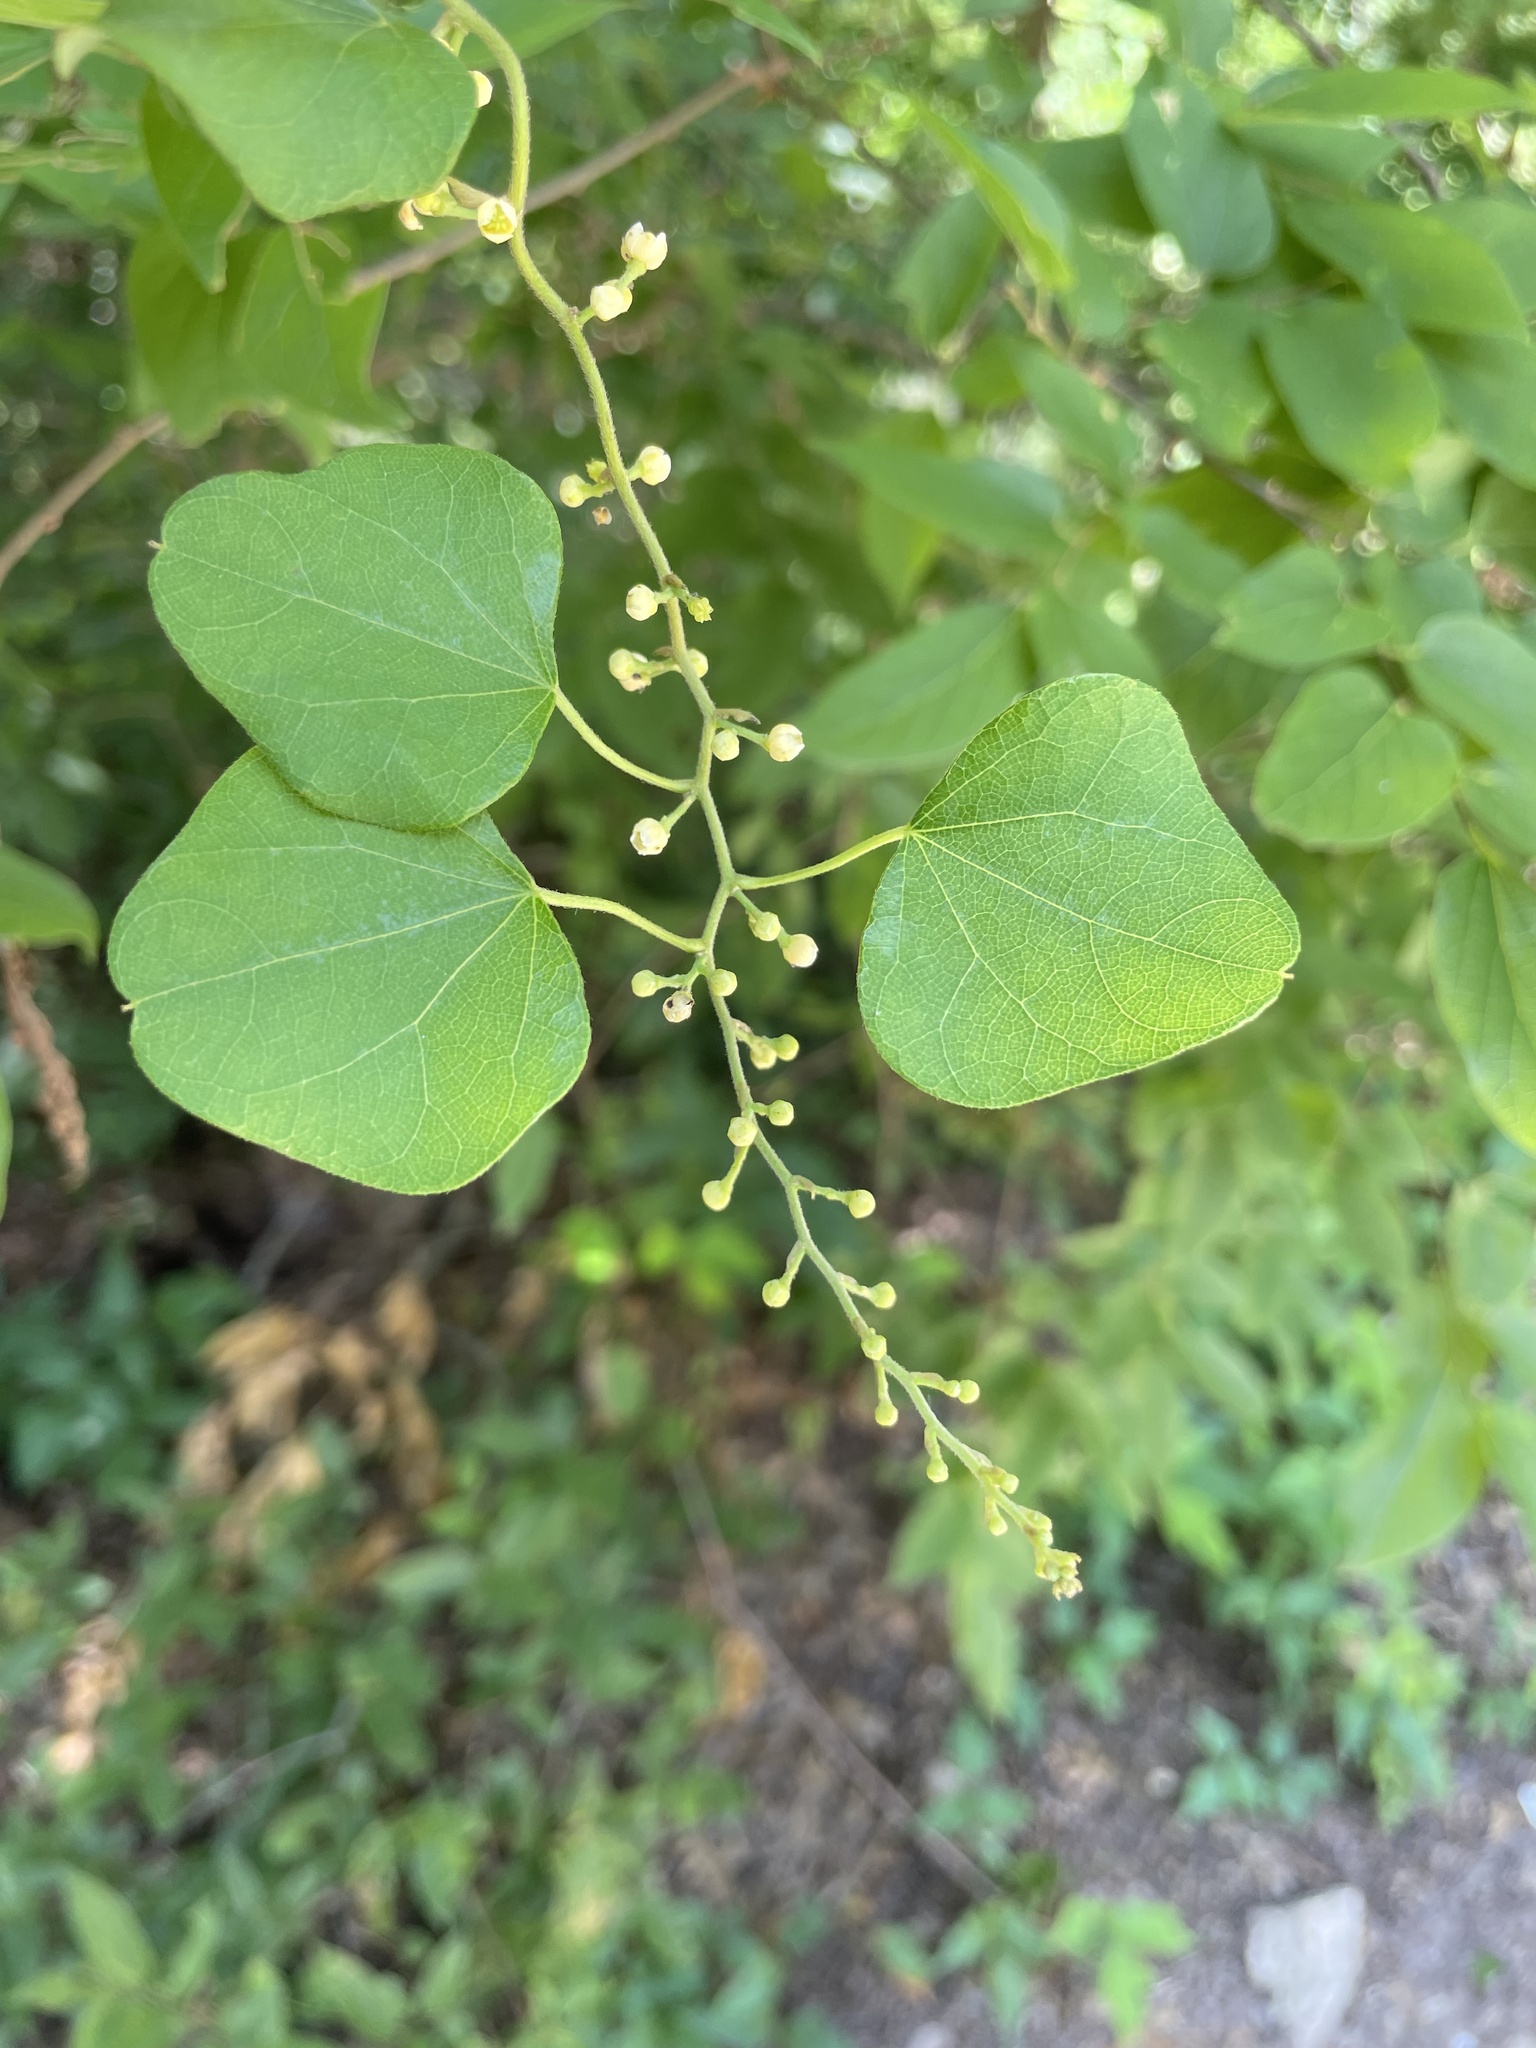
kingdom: Plantae
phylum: Tracheophyta
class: Magnoliopsida
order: Ranunculales
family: Menispermaceae
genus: Cocculus
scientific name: Cocculus carolinus
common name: Carolina moonseed
